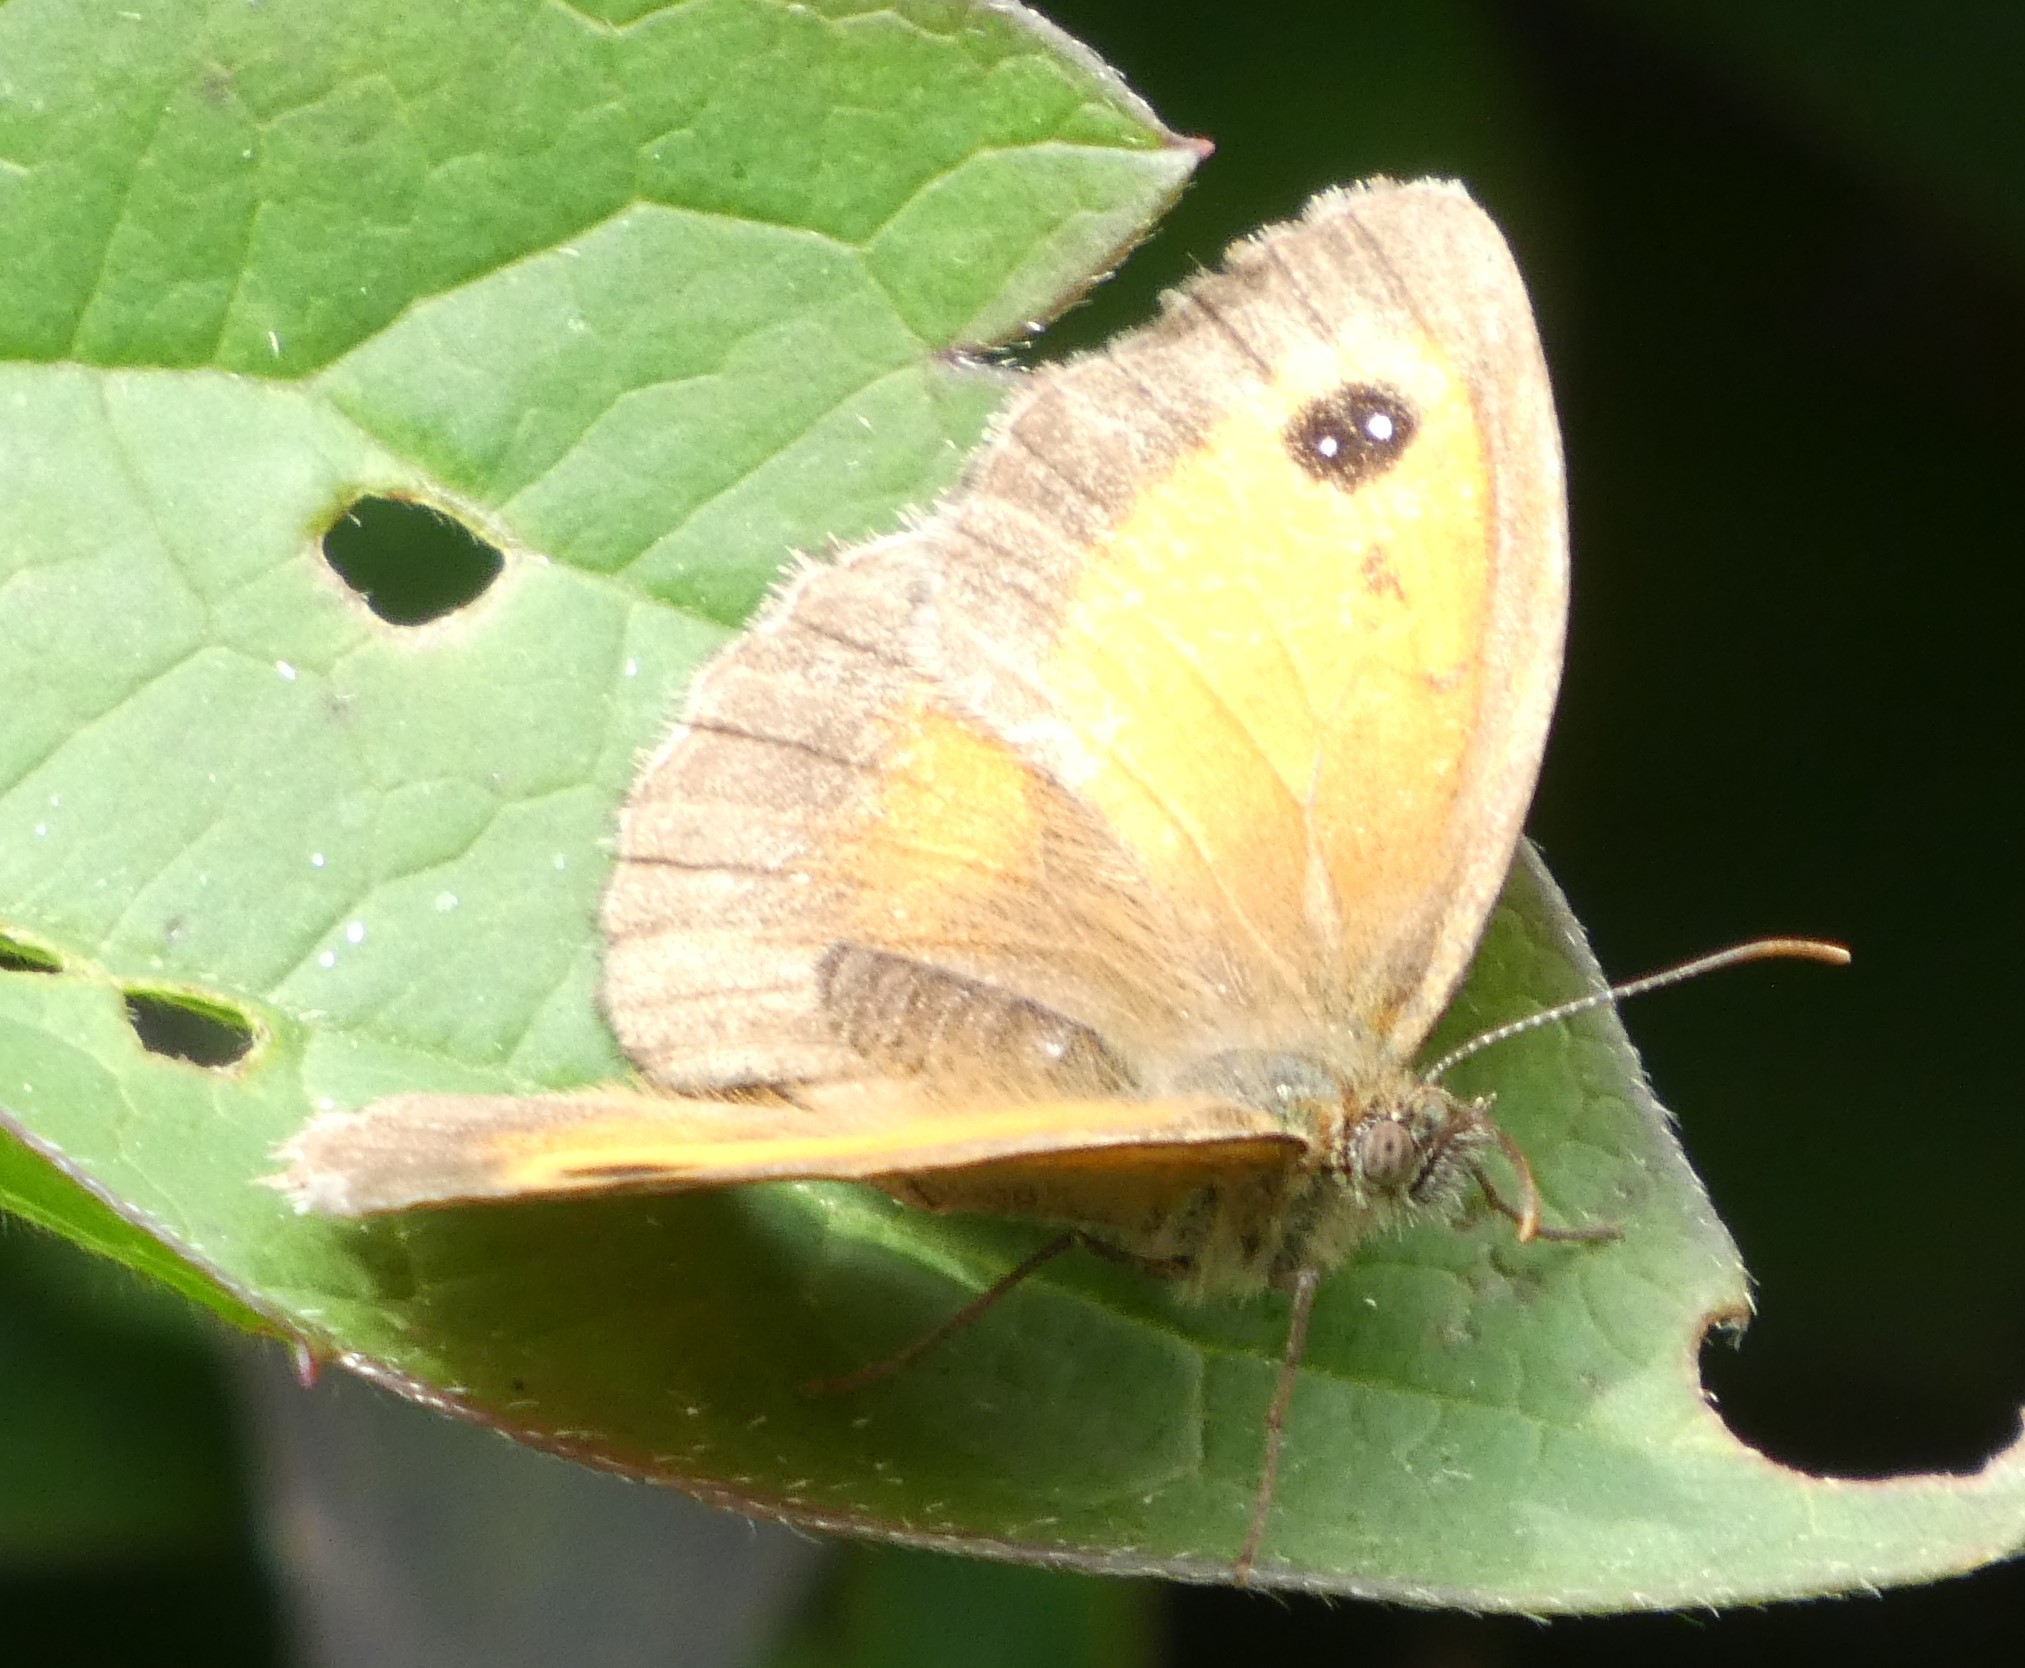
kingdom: Animalia
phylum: Arthropoda
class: Insecta
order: Lepidoptera
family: Nymphalidae
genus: Pyronia
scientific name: Pyronia tithonus
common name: Gatekeeper
